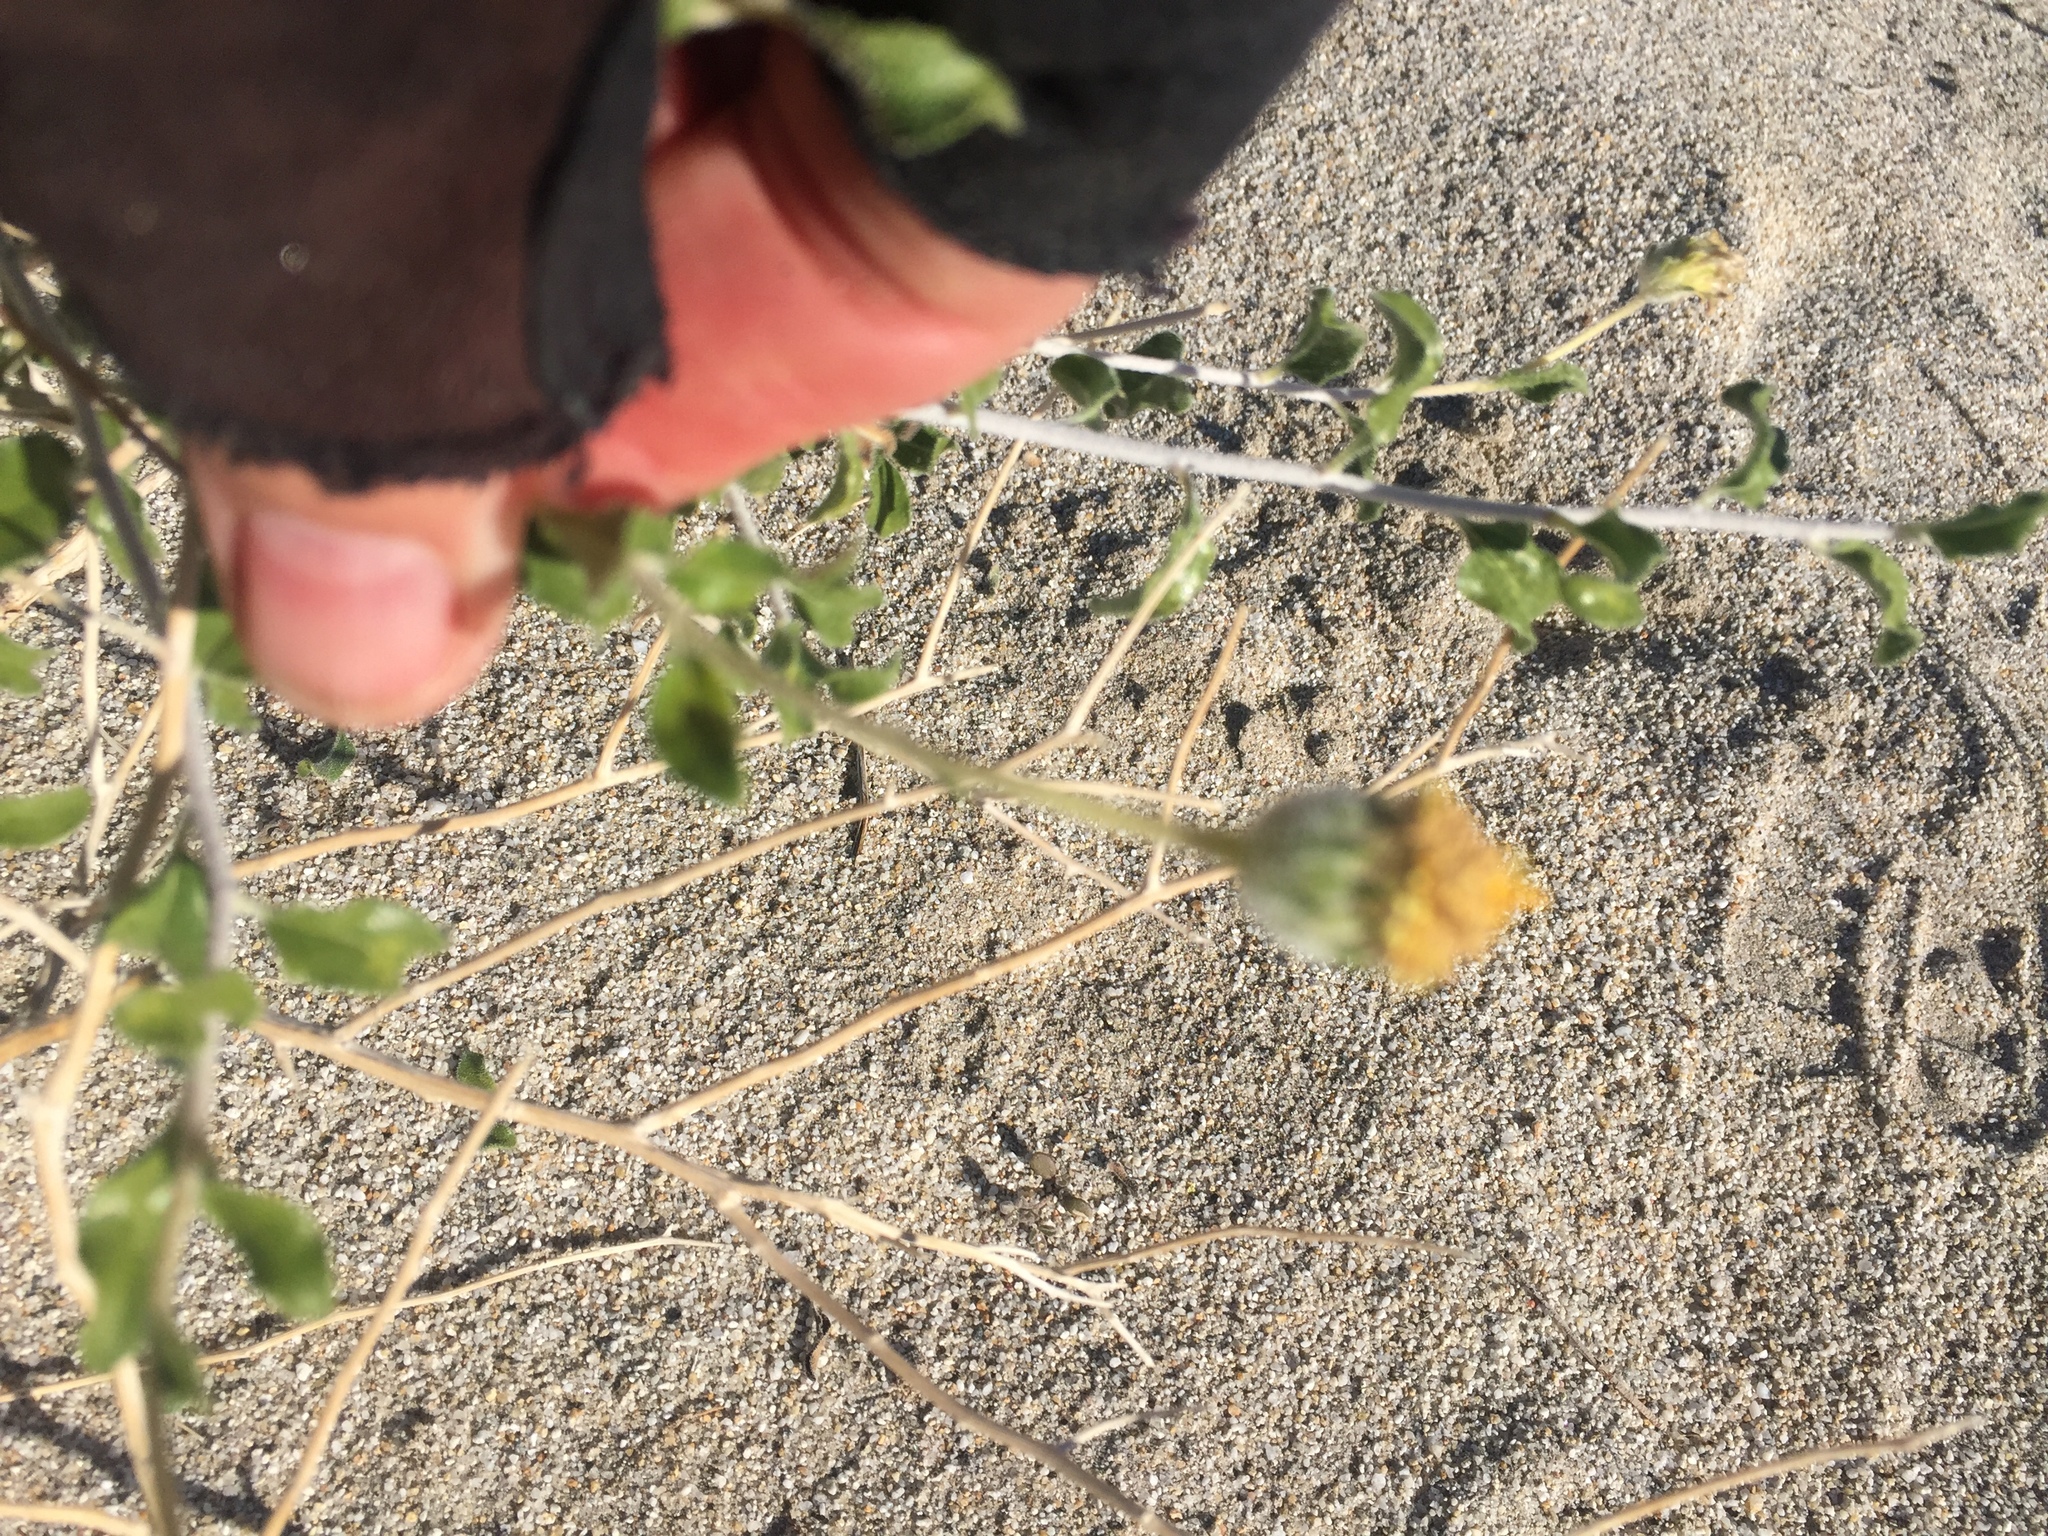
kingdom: Plantae
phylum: Tracheophyta
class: Magnoliopsida
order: Asterales
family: Asteraceae
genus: Encelia
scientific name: Encelia frutescens
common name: Bush encelia
